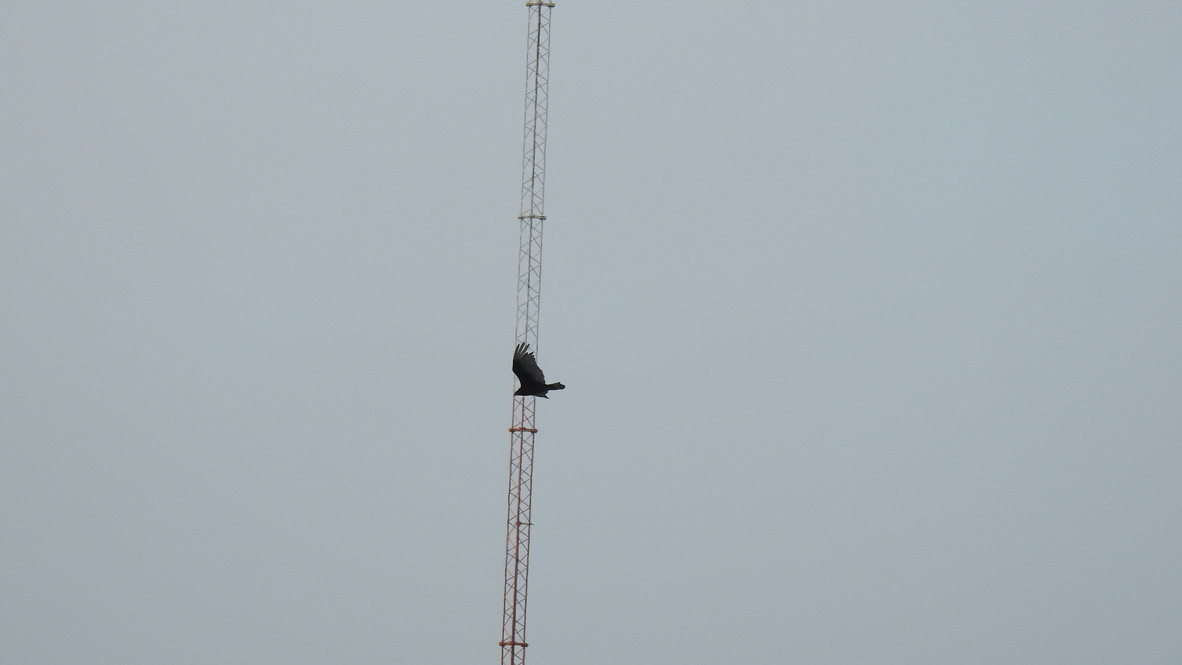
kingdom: Animalia
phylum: Chordata
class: Aves
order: Accipitriformes
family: Cathartidae
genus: Cathartes
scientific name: Cathartes aura
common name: Turkey vulture
